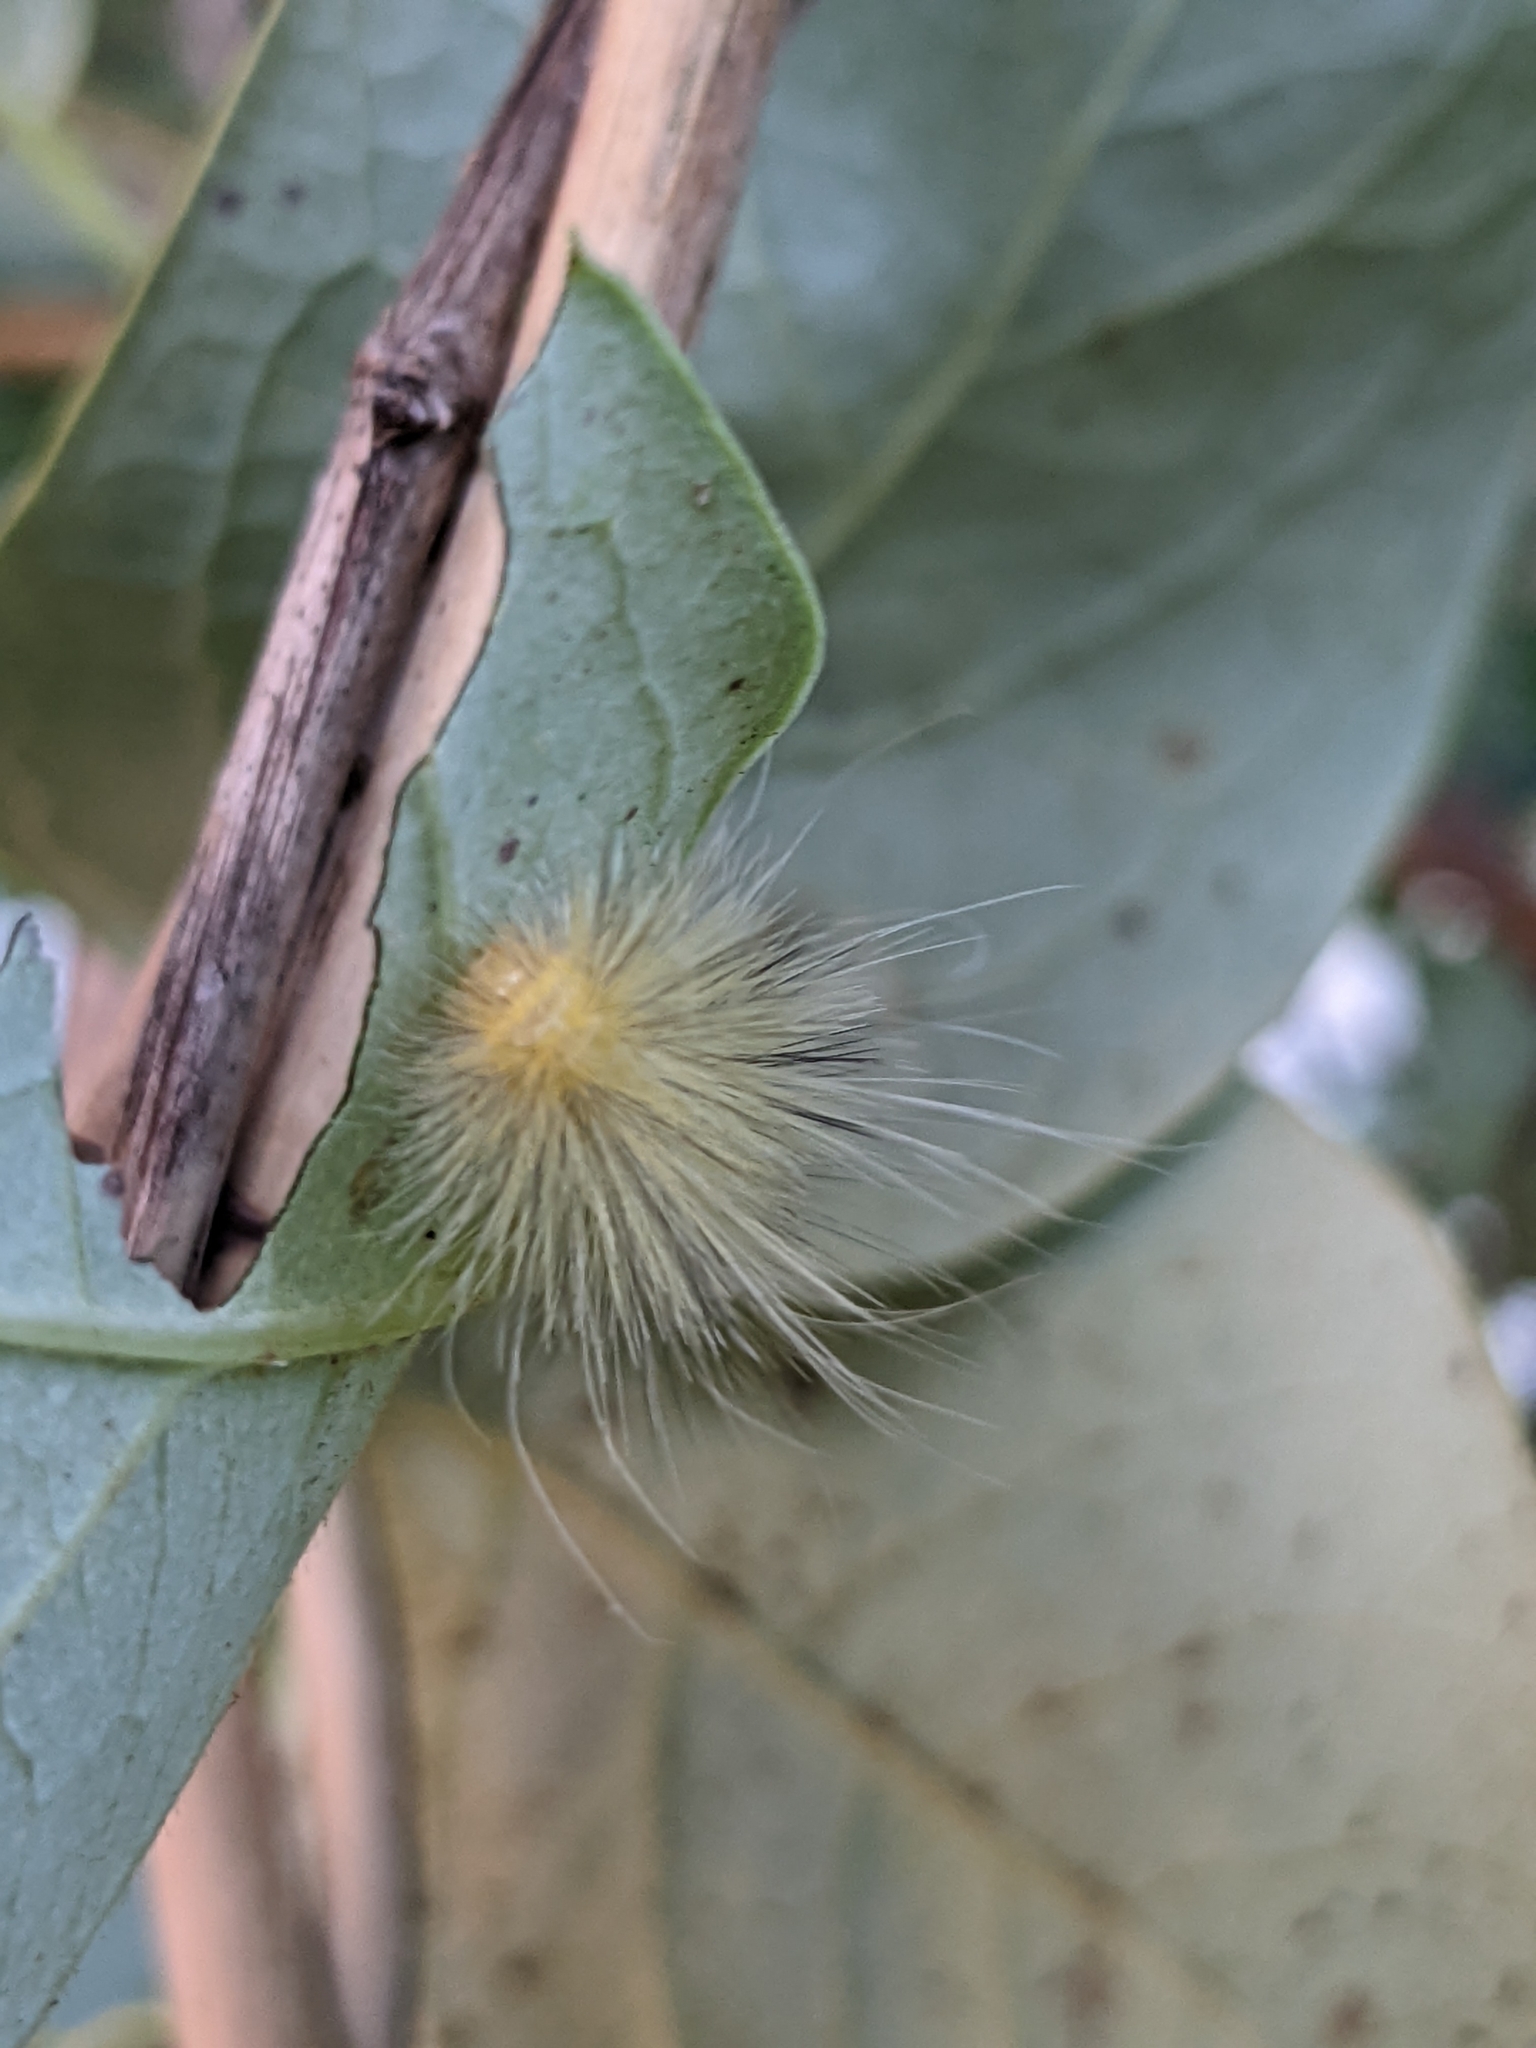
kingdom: Animalia
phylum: Arthropoda
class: Insecta
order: Lepidoptera
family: Erebidae
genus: Spilosoma
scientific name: Spilosoma virginica
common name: Virginia tiger moth
